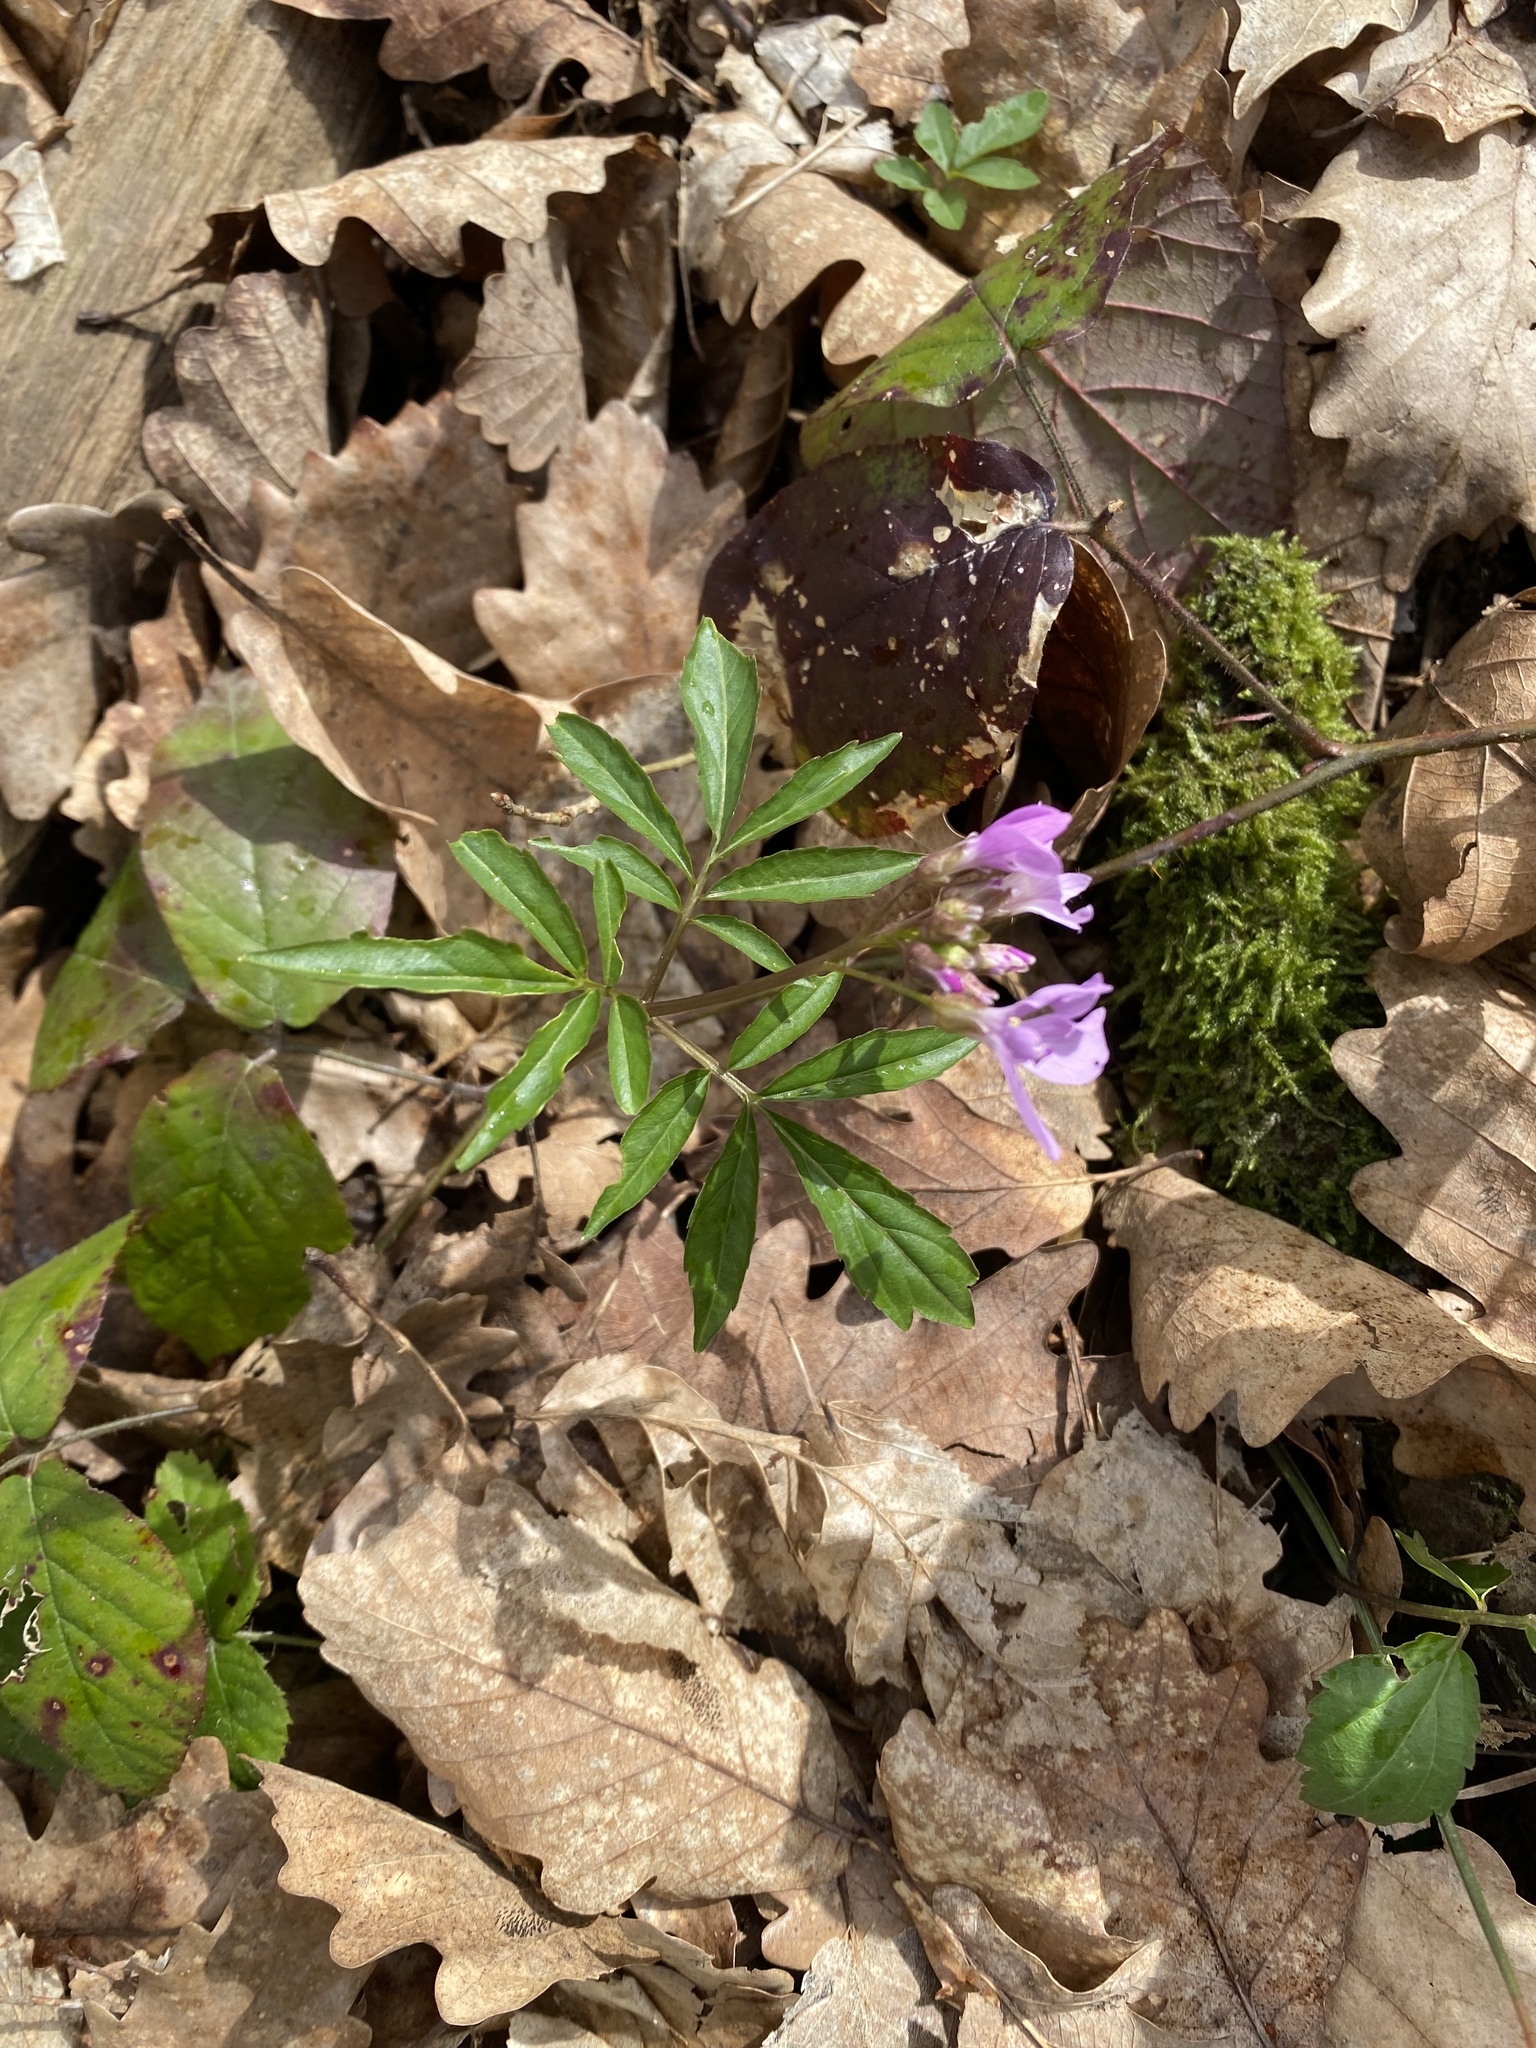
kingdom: Plantae
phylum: Tracheophyta
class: Magnoliopsida
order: Brassicales
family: Brassicaceae
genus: Cardamine
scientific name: Cardamine quinquefolia
